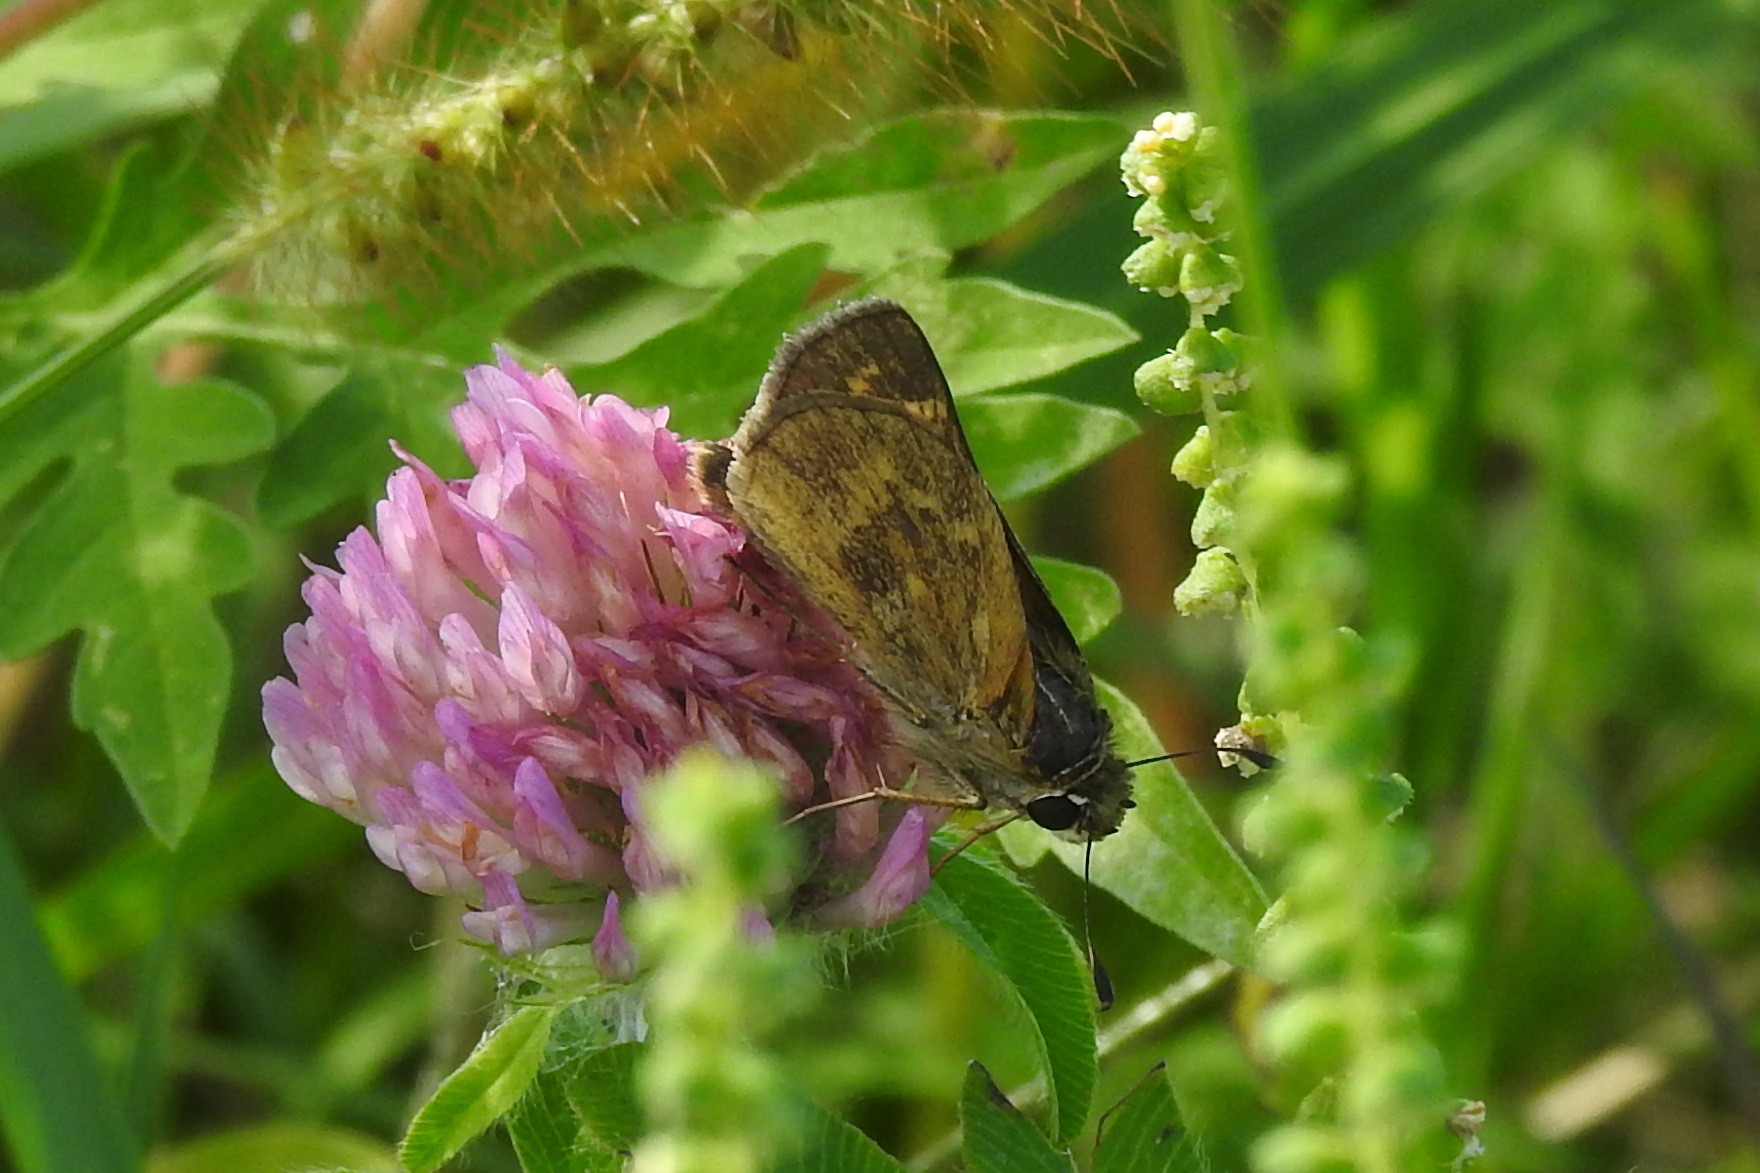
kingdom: Animalia
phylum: Arthropoda
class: Insecta
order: Lepidoptera
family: Hesperiidae
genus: Atalopedes
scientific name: Atalopedes
